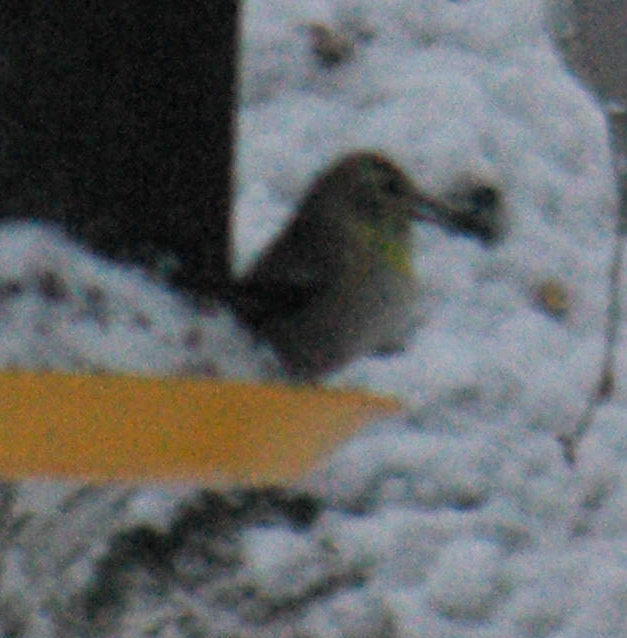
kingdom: Animalia
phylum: Chordata
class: Aves
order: Passeriformes
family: Fringillidae
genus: Spinus
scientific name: Spinus tristis
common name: American goldfinch
